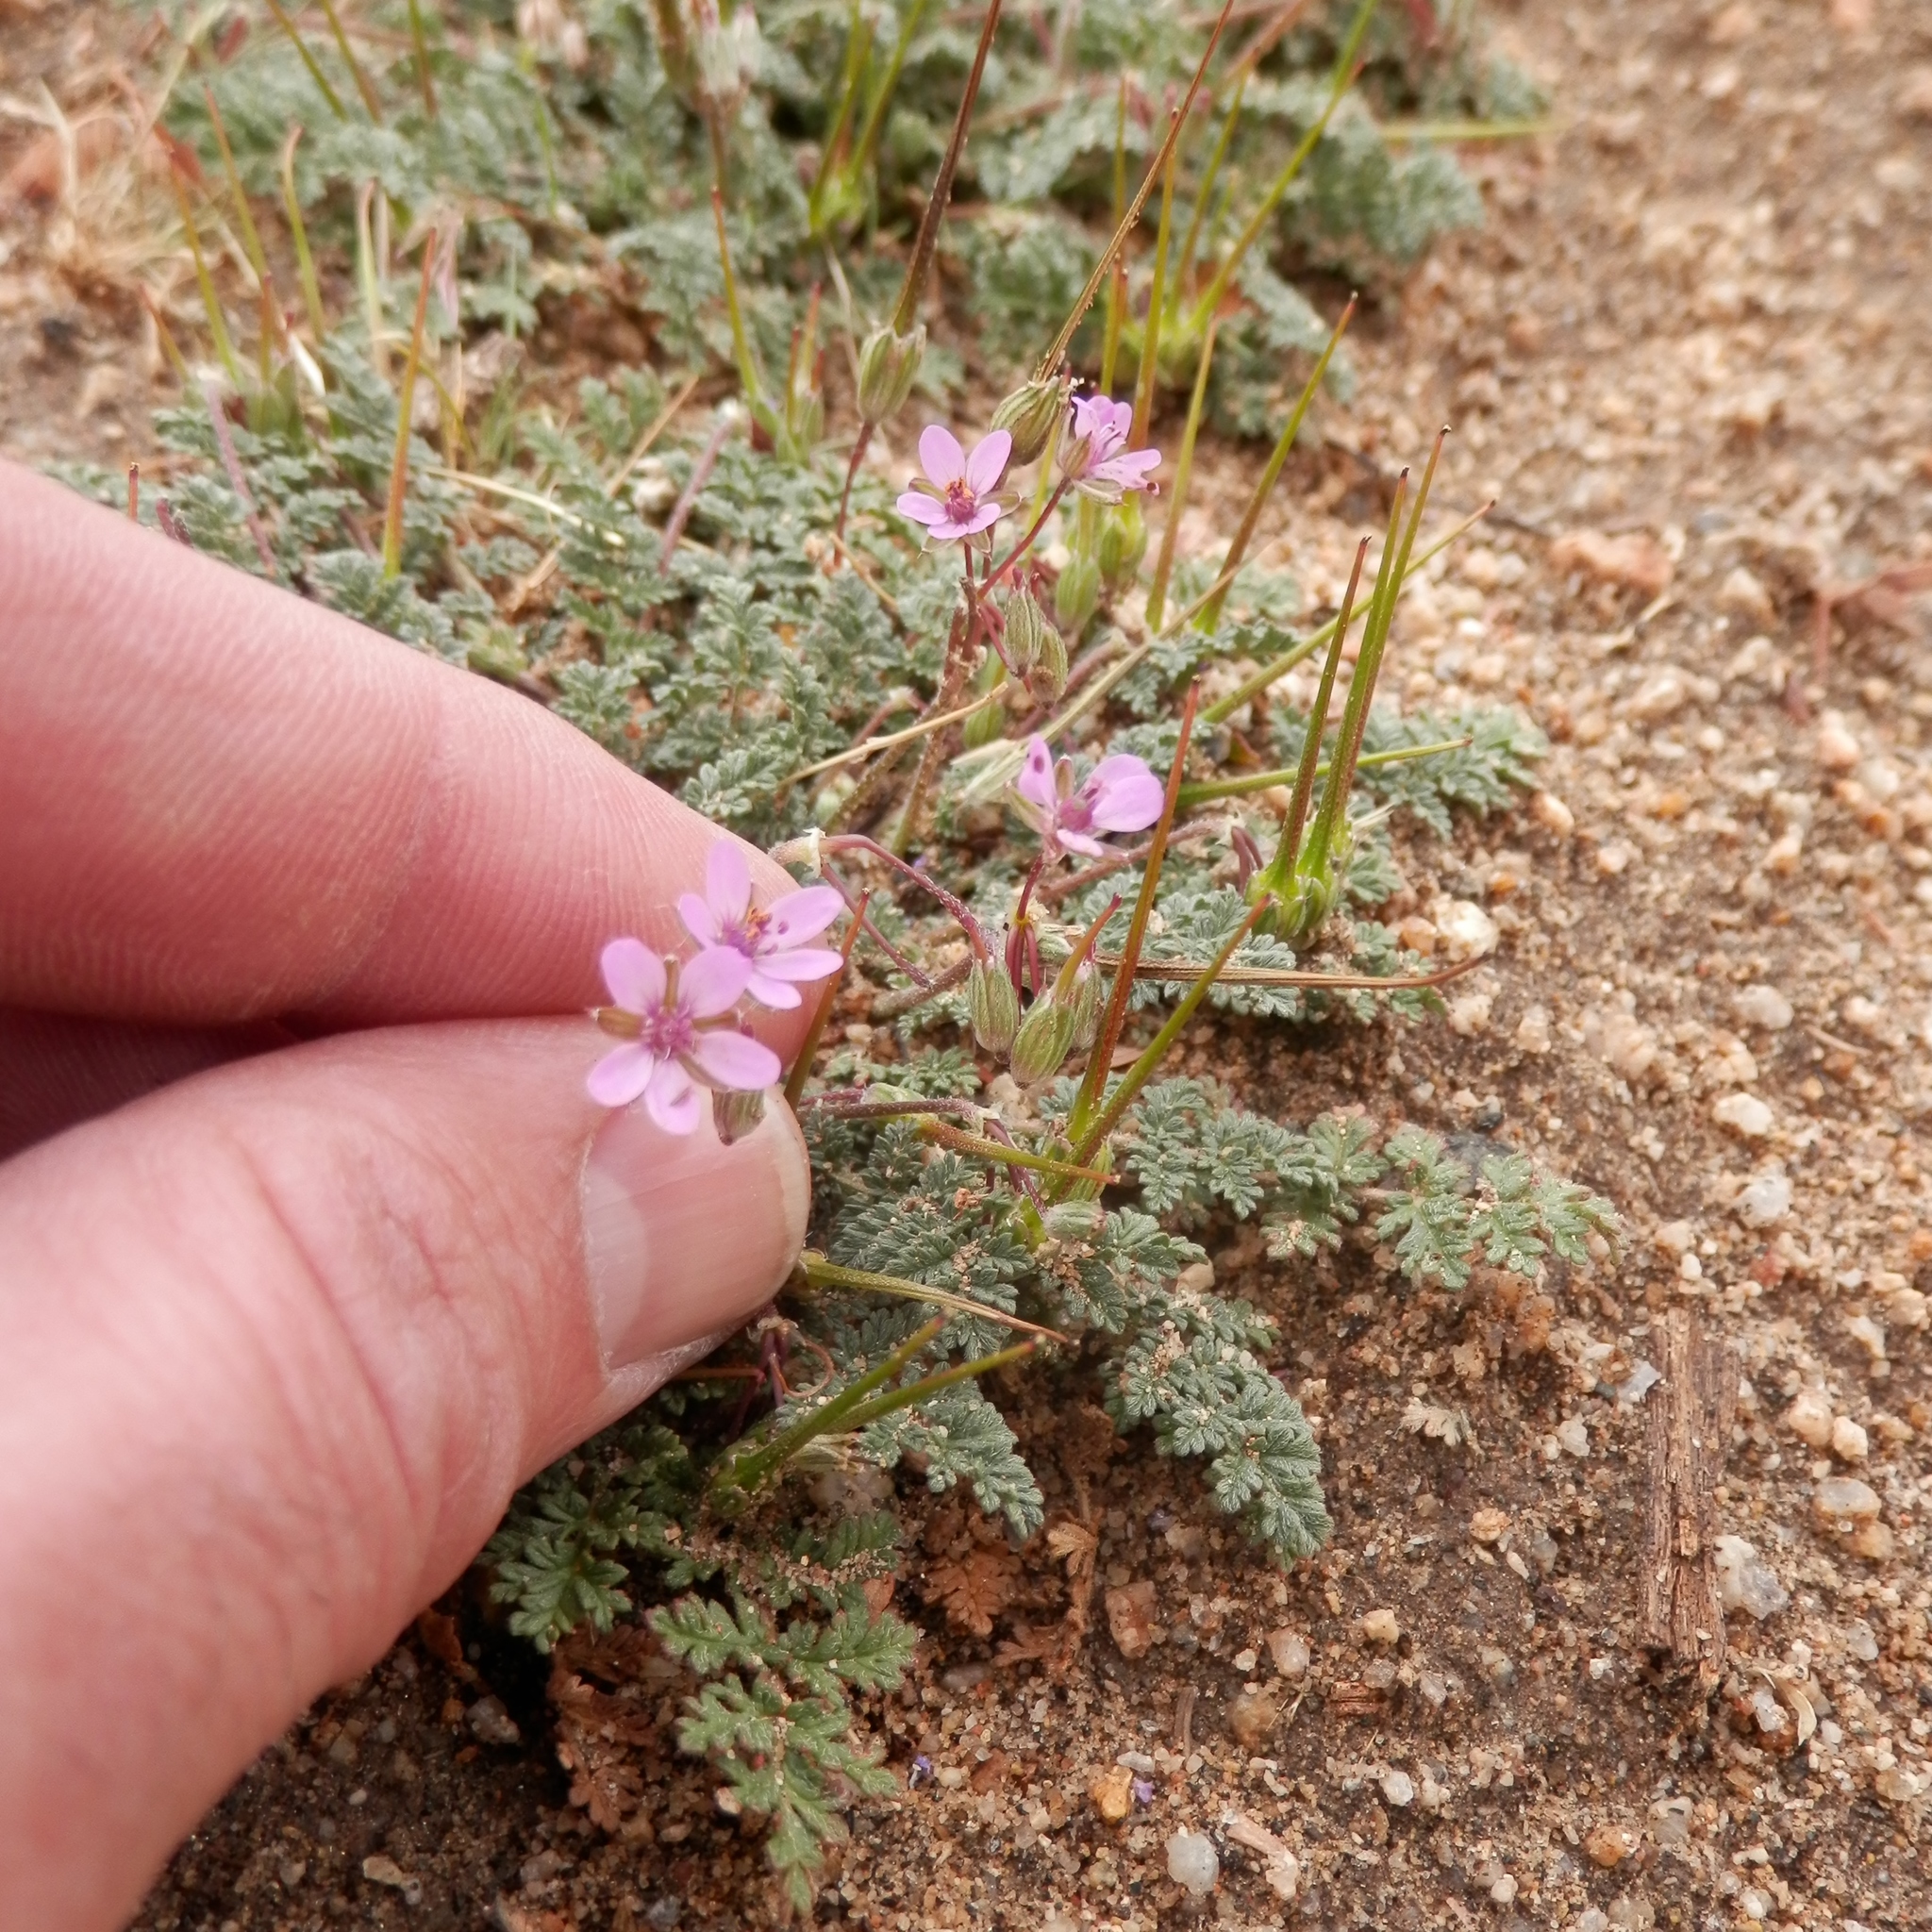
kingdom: Plantae
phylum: Tracheophyta
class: Magnoliopsida
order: Geraniales
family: Geraniaceae
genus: Erodium
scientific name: Erodium cicutarium
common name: Common stork's-bill
